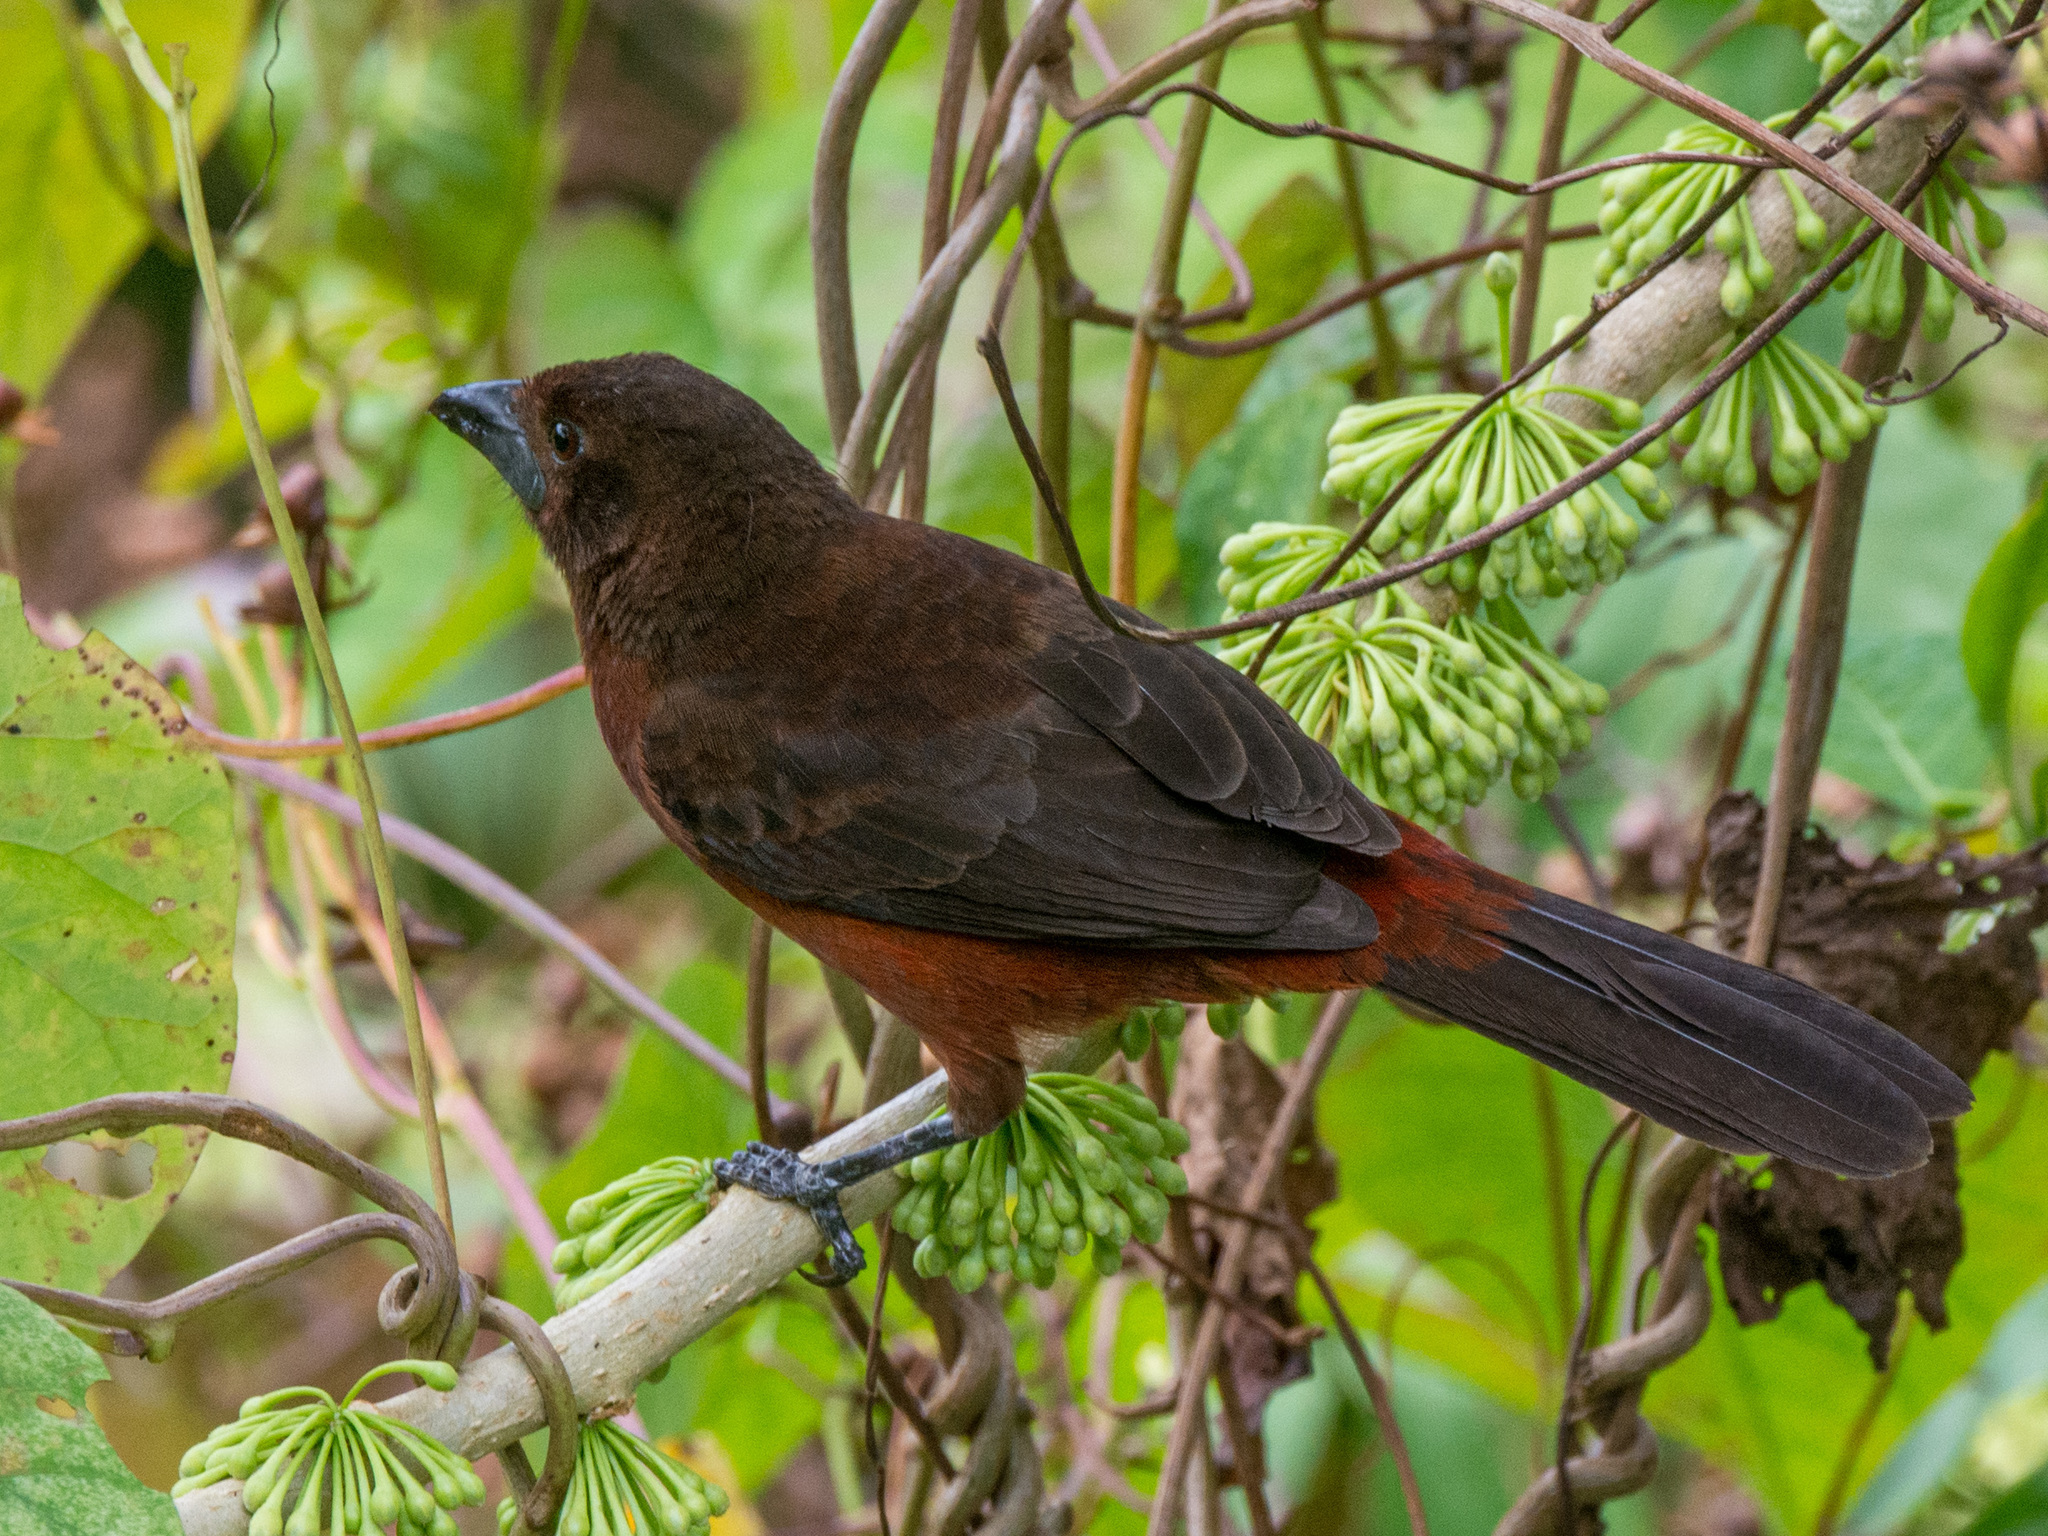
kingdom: Animalia
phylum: Chordata
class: Aves
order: Passeriformes
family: Thraupidae
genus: Ramphocelus
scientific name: Ramphocelus carbo
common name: Silver-beaked tanager
